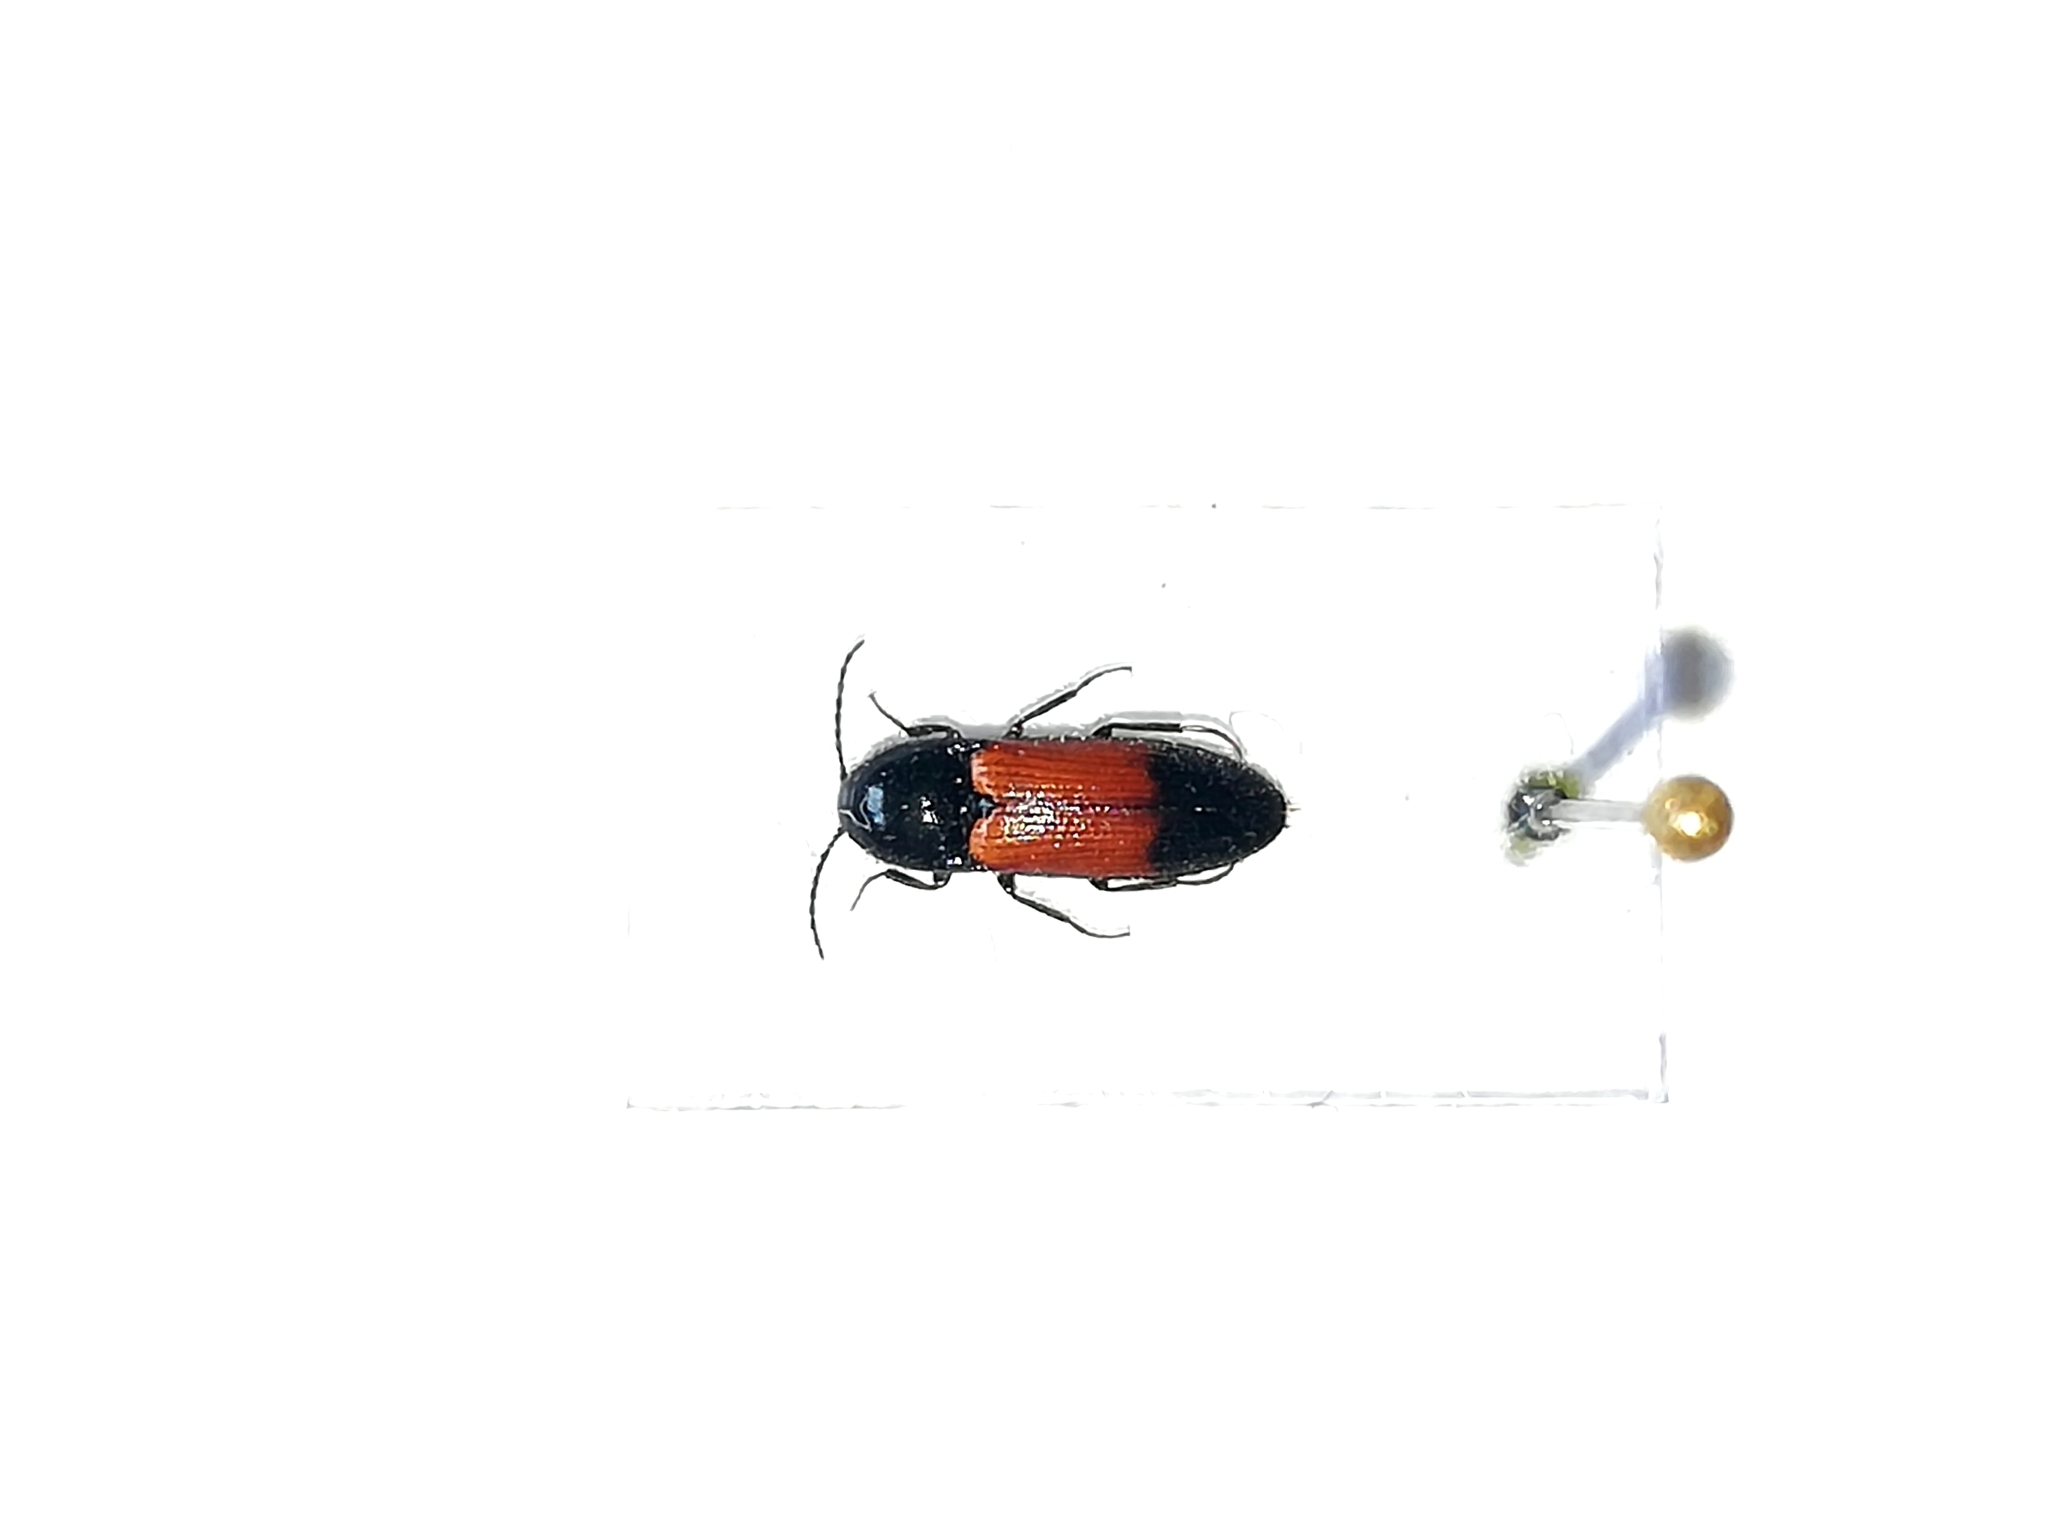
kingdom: Animalia
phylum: Arthropoda
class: Insecta
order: Coleoptera
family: Elateridae
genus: Ampedus
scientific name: Ampedus balteatus
